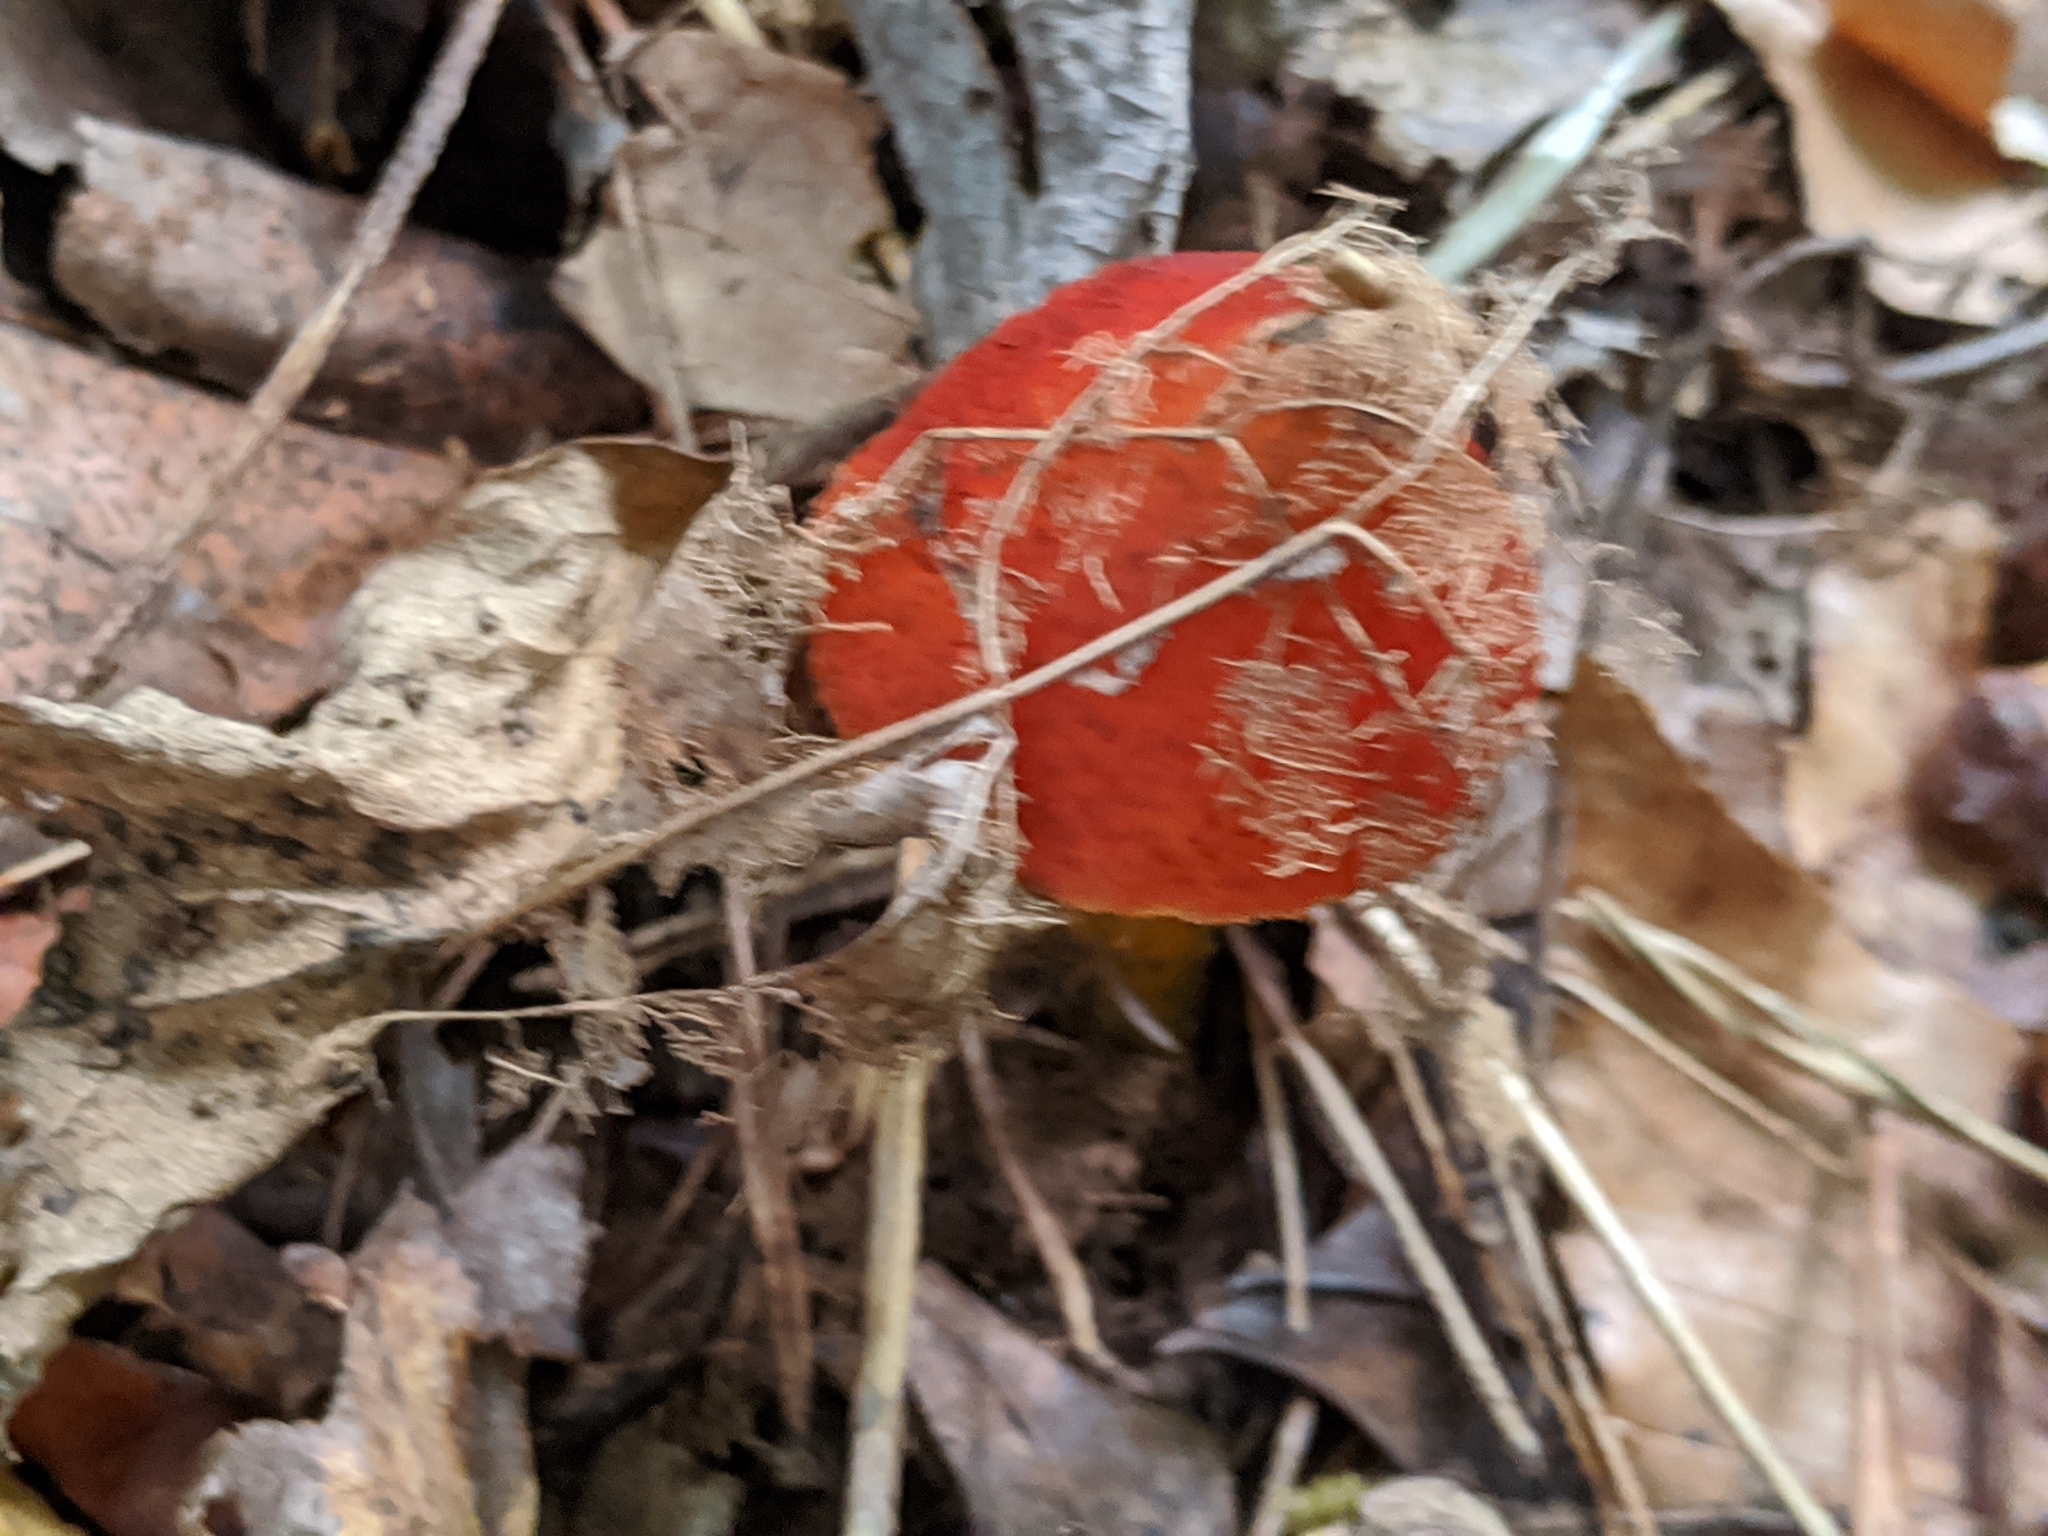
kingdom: Fungi
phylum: Basidiomycota
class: Agaricomycetes
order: Agaricales
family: Hygrophoraceae
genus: Hygrocybe
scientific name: Hygrocybe conica
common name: Blackening wax-cap
